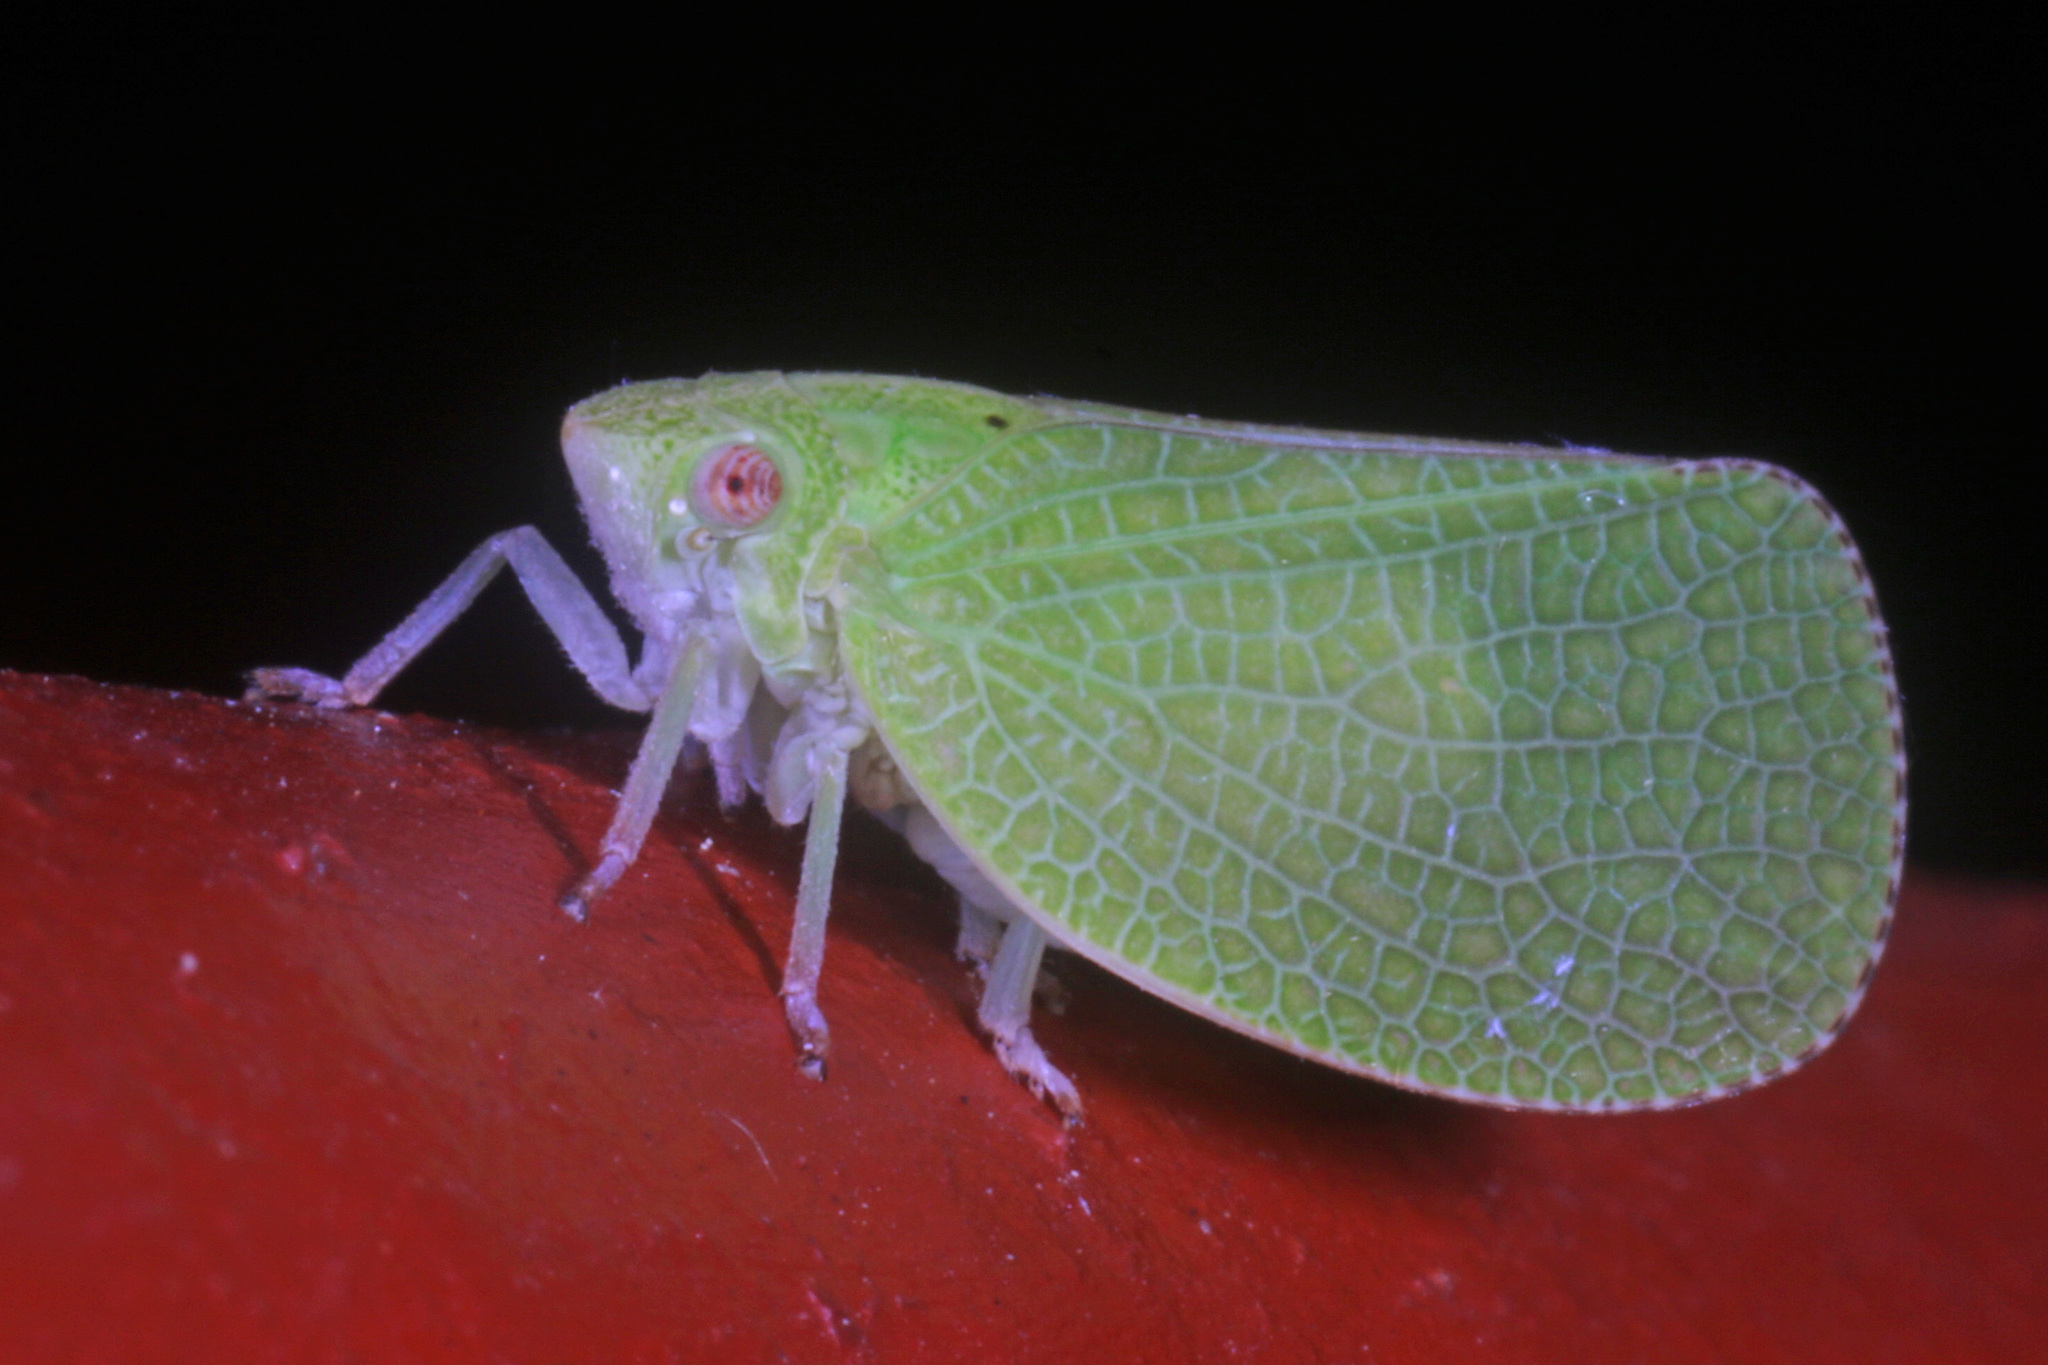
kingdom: Animalia
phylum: Arthropoda
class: Insecta
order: Hemiptera
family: Acanaloniidae
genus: Acanalonia
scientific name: Acanalonia conica
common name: Green cone-headed planthopper
